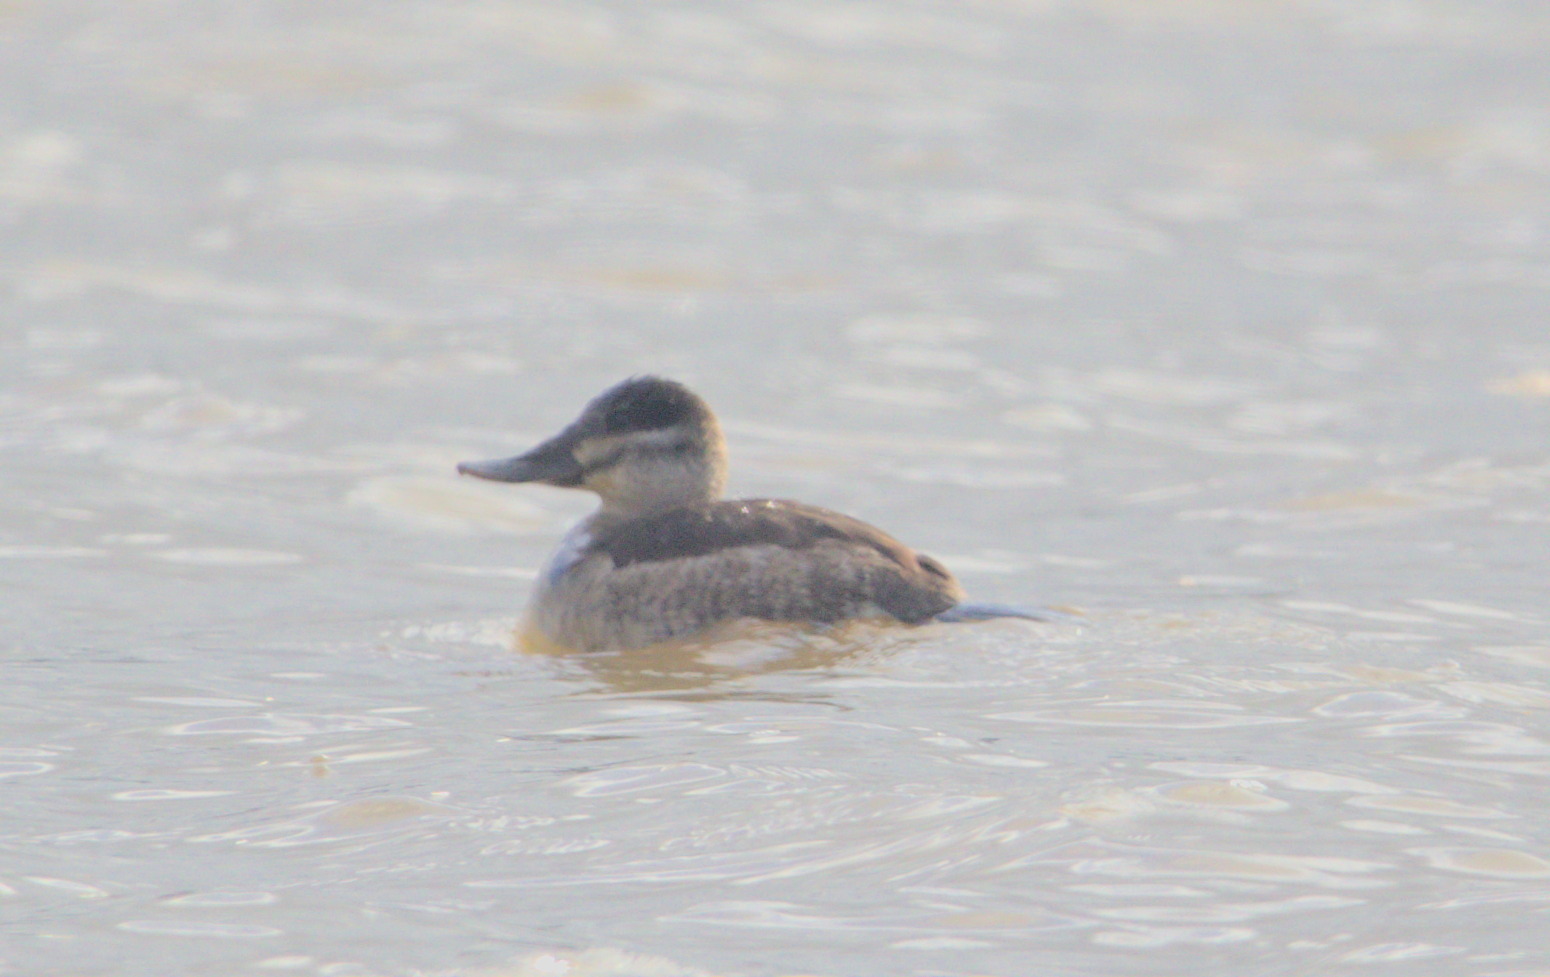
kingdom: Animalia
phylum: Chordata
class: Aves
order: Anseriformes
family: Anatidae
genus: Oxyura
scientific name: Oxyura jamaicensis
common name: Ruddy duck
